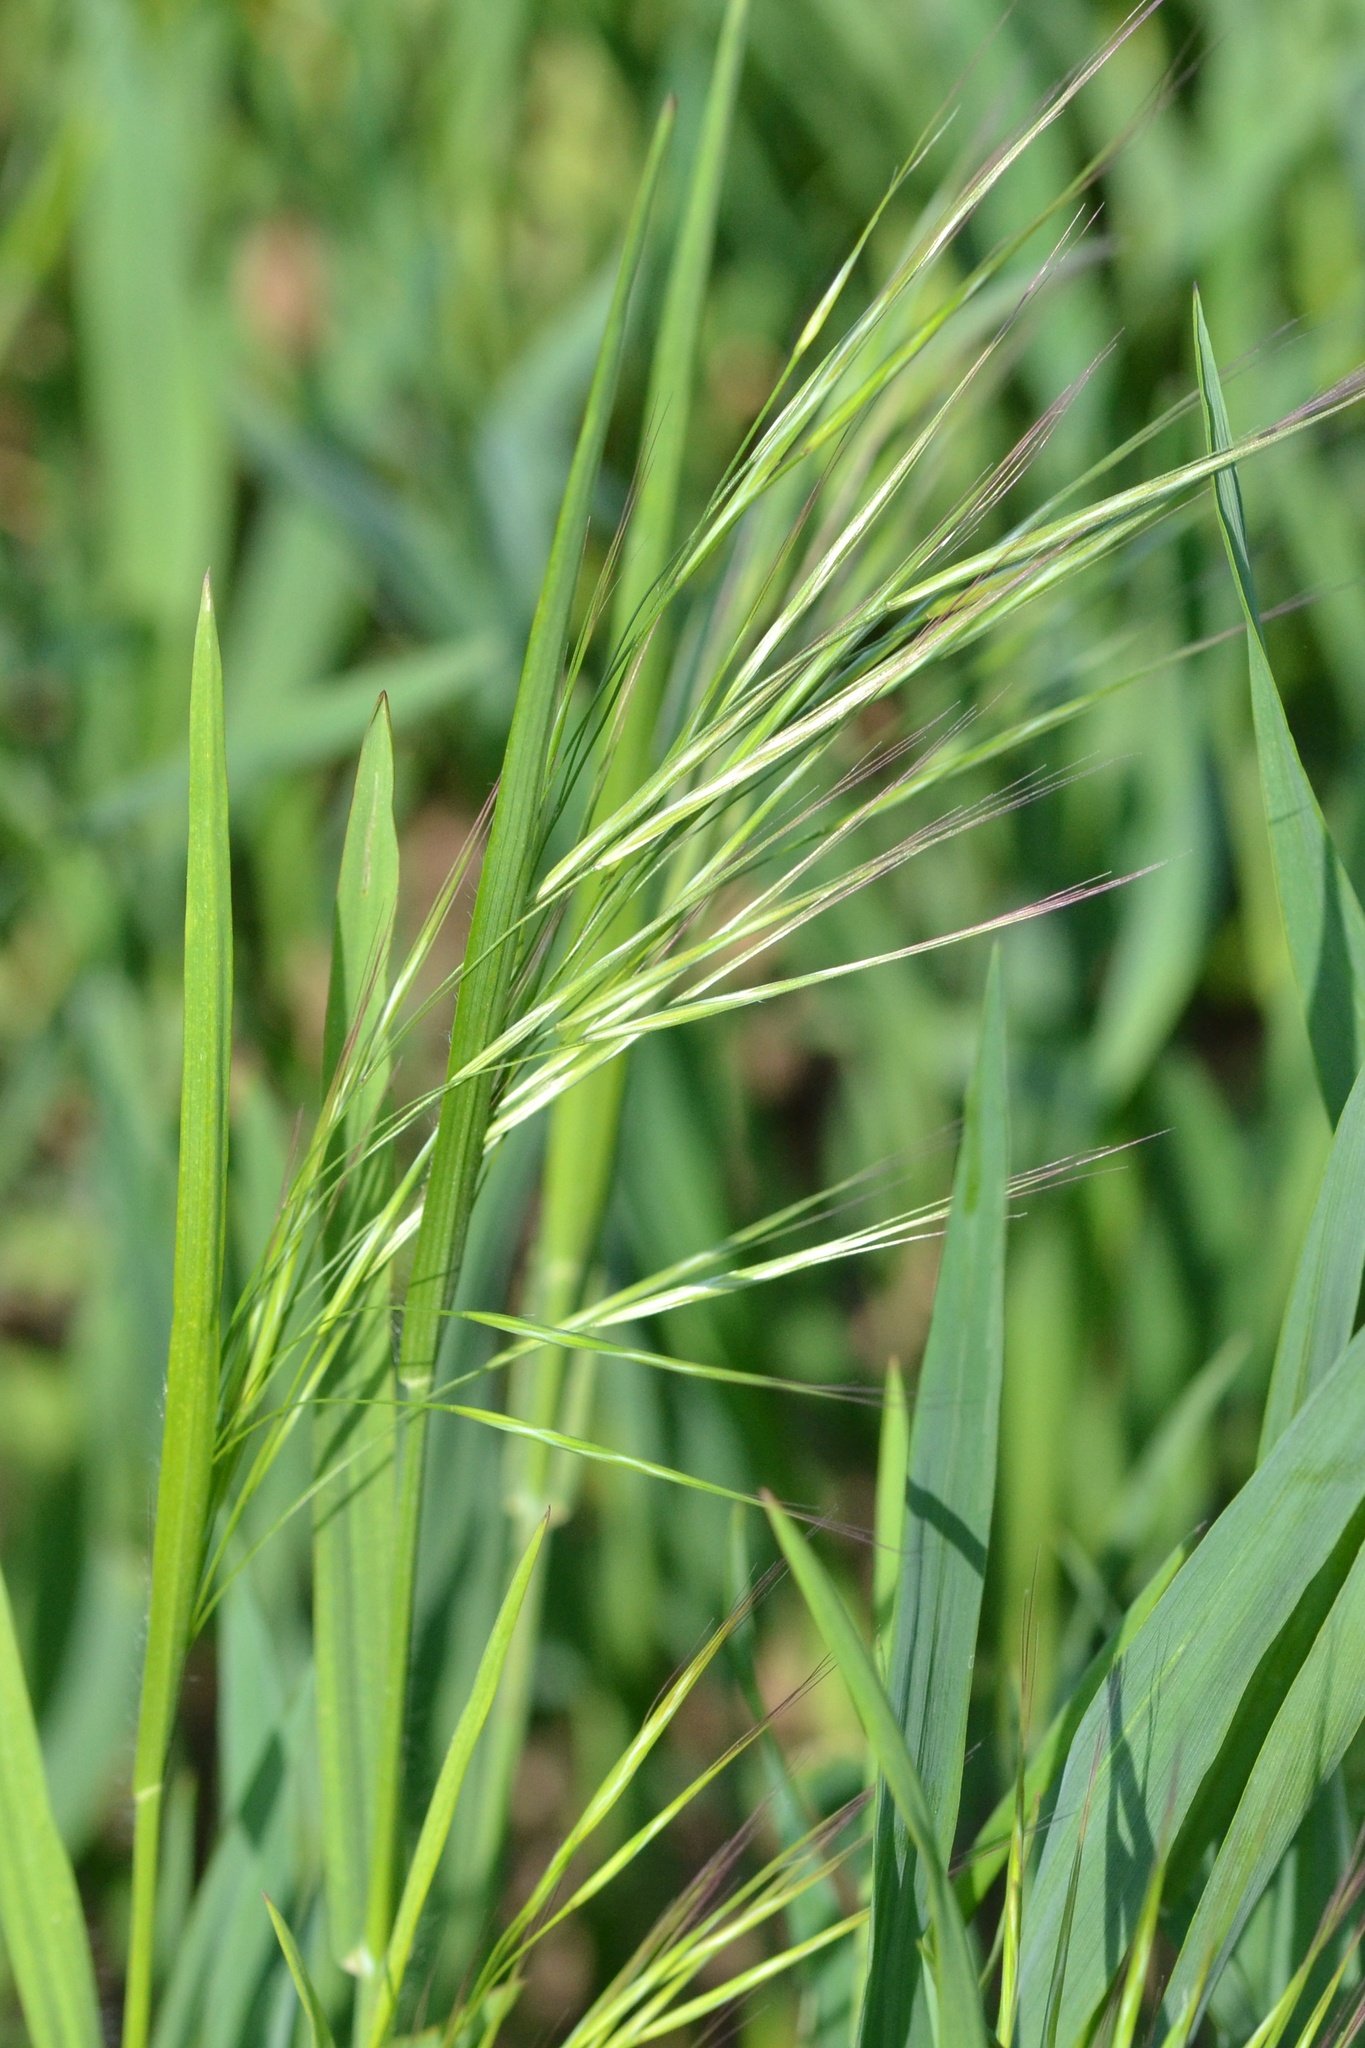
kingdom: Plantae
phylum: Tracheophyta
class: Liliopsida
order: Poales
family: Poaceae
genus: Bromus
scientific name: Bromus sterilis
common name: Poverty brome
